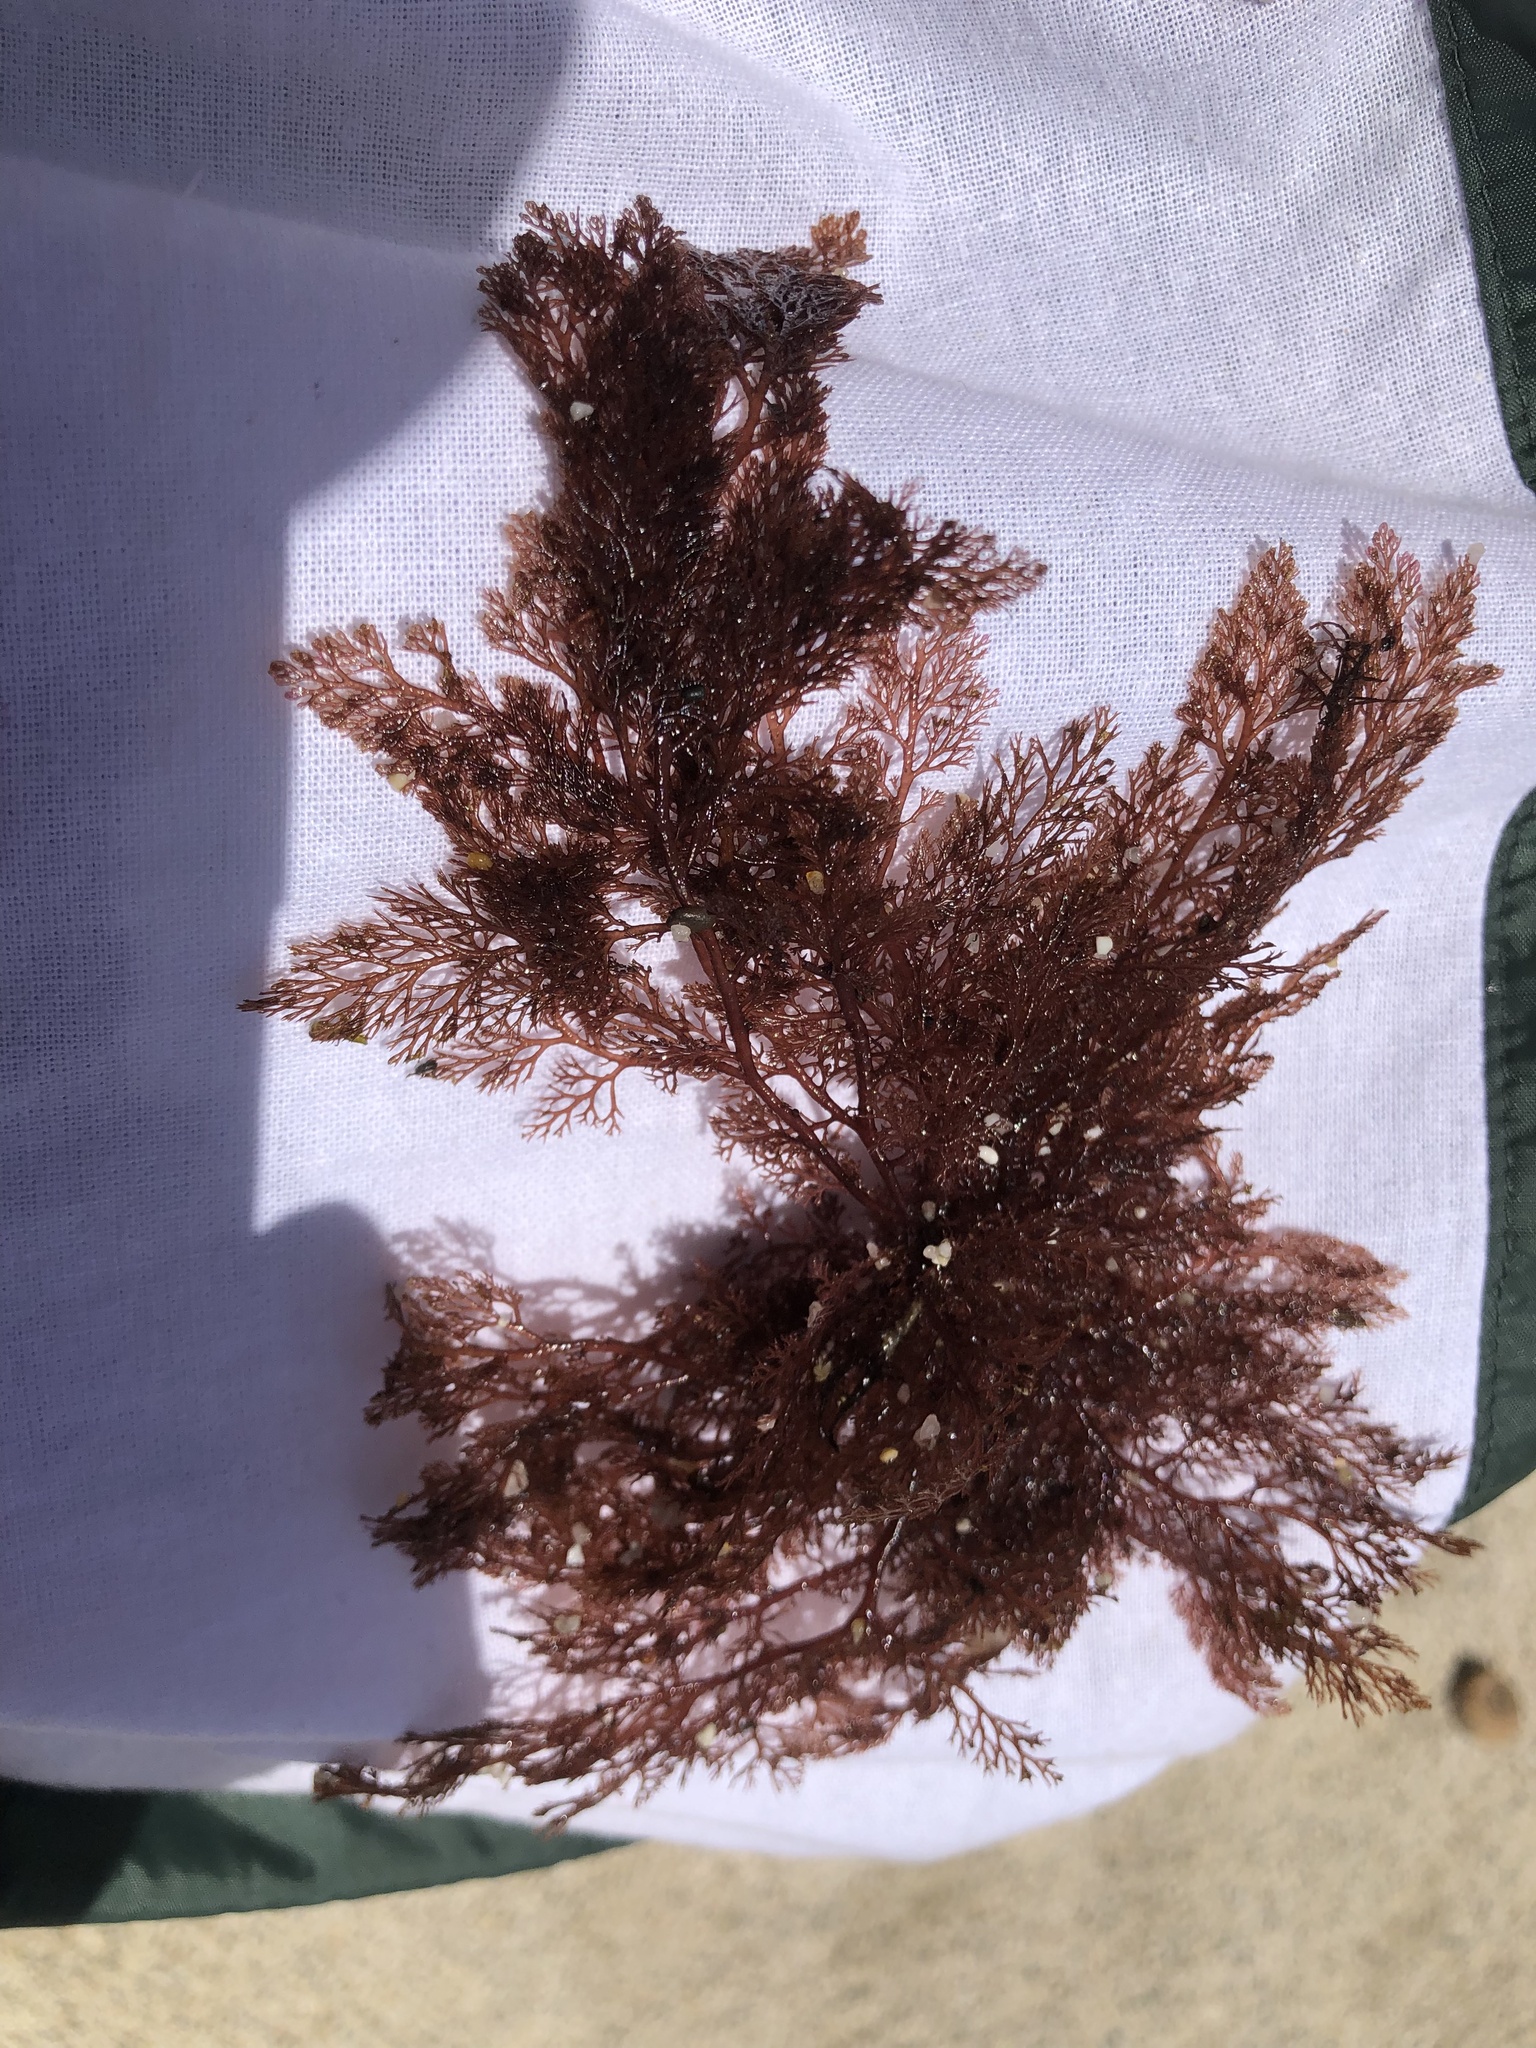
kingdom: Plantae
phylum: Rhodophyta
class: Florideophyceae
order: Ceramiales
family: Ceramiaceae
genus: Microcladia
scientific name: Microcladia coulteri
